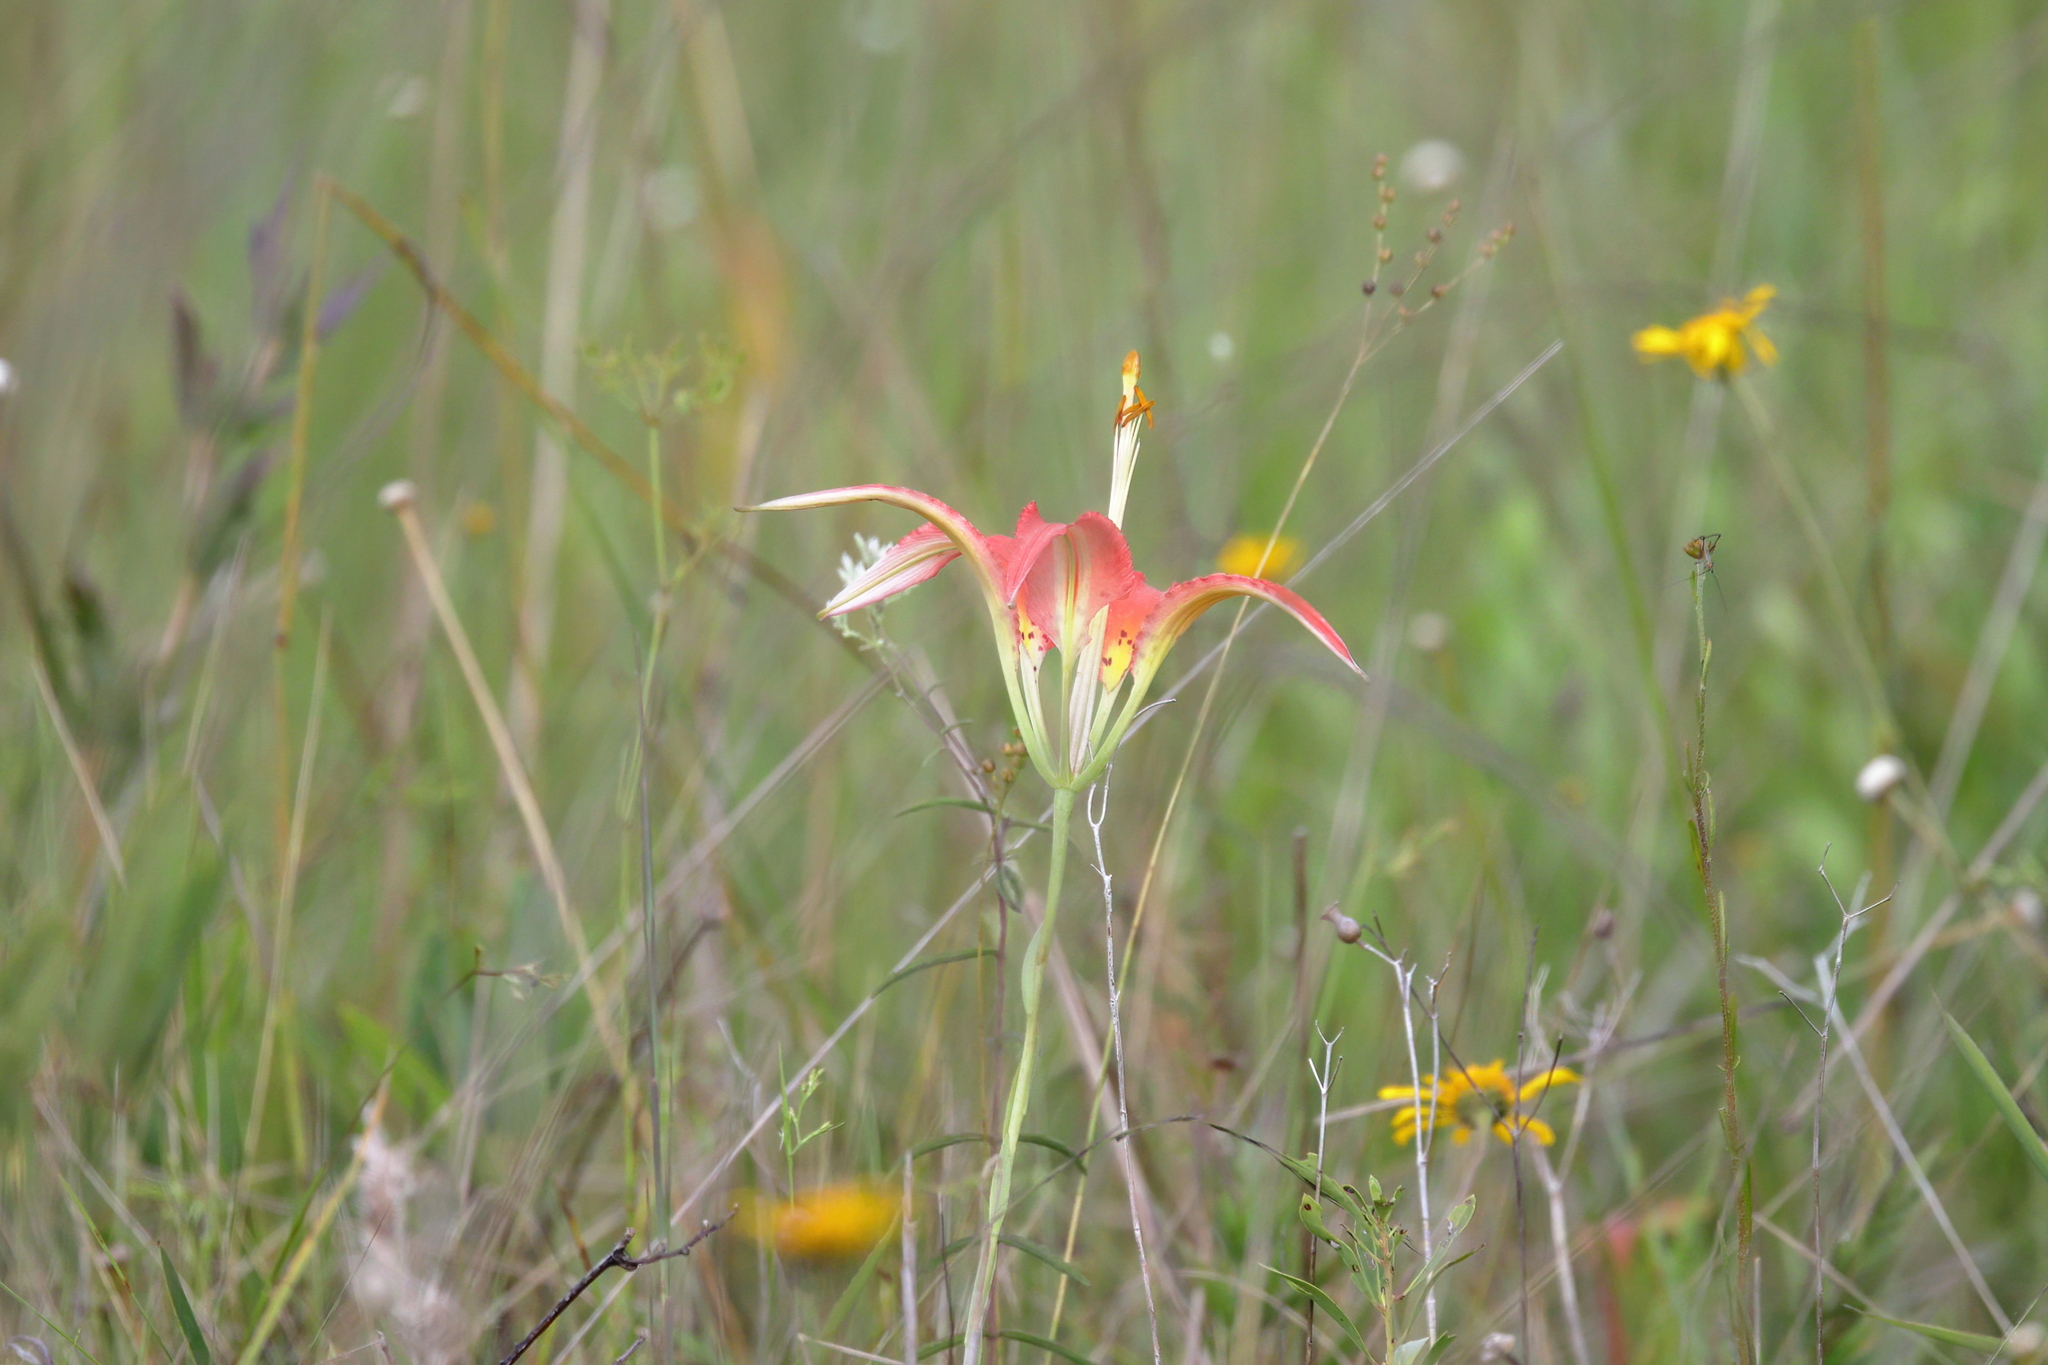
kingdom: Plantae
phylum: Tracheophyta
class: Liliopsida
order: Liliales
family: Liliaceae
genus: Lilium
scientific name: Lilium catesbaei
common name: Catesby's lily
